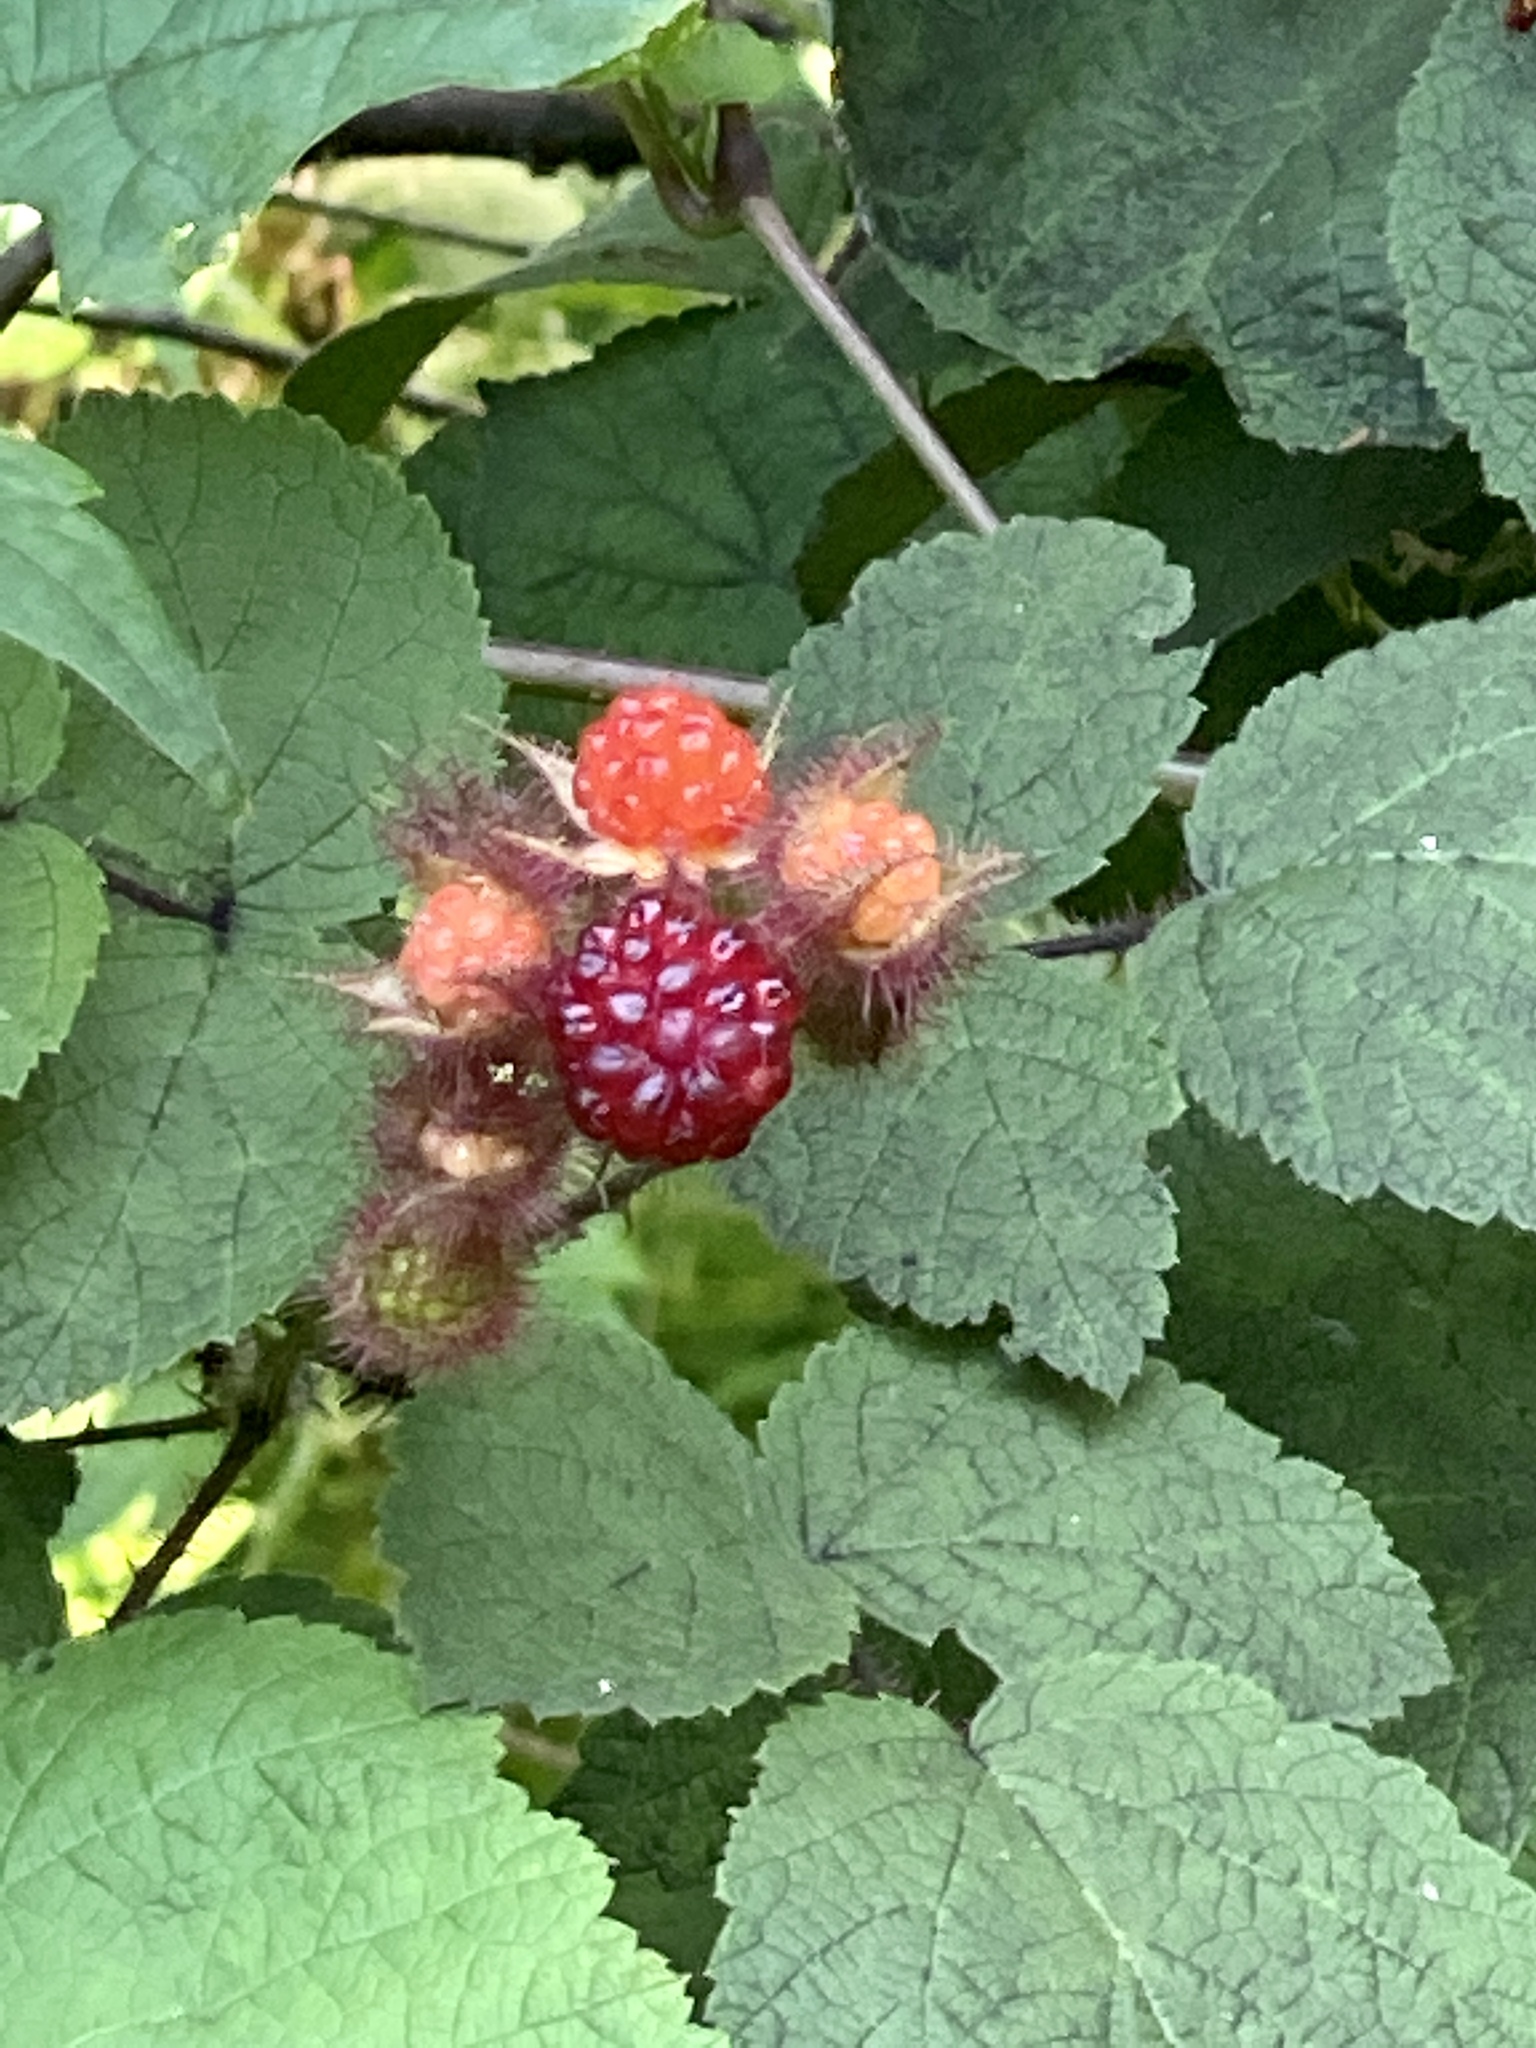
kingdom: Plantae
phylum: Tracheophyta
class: Magnoliopsida
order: Rosales
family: Rosaceae
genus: Rubus
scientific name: Rubus phoenicolasius
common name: Japanese wineberry
